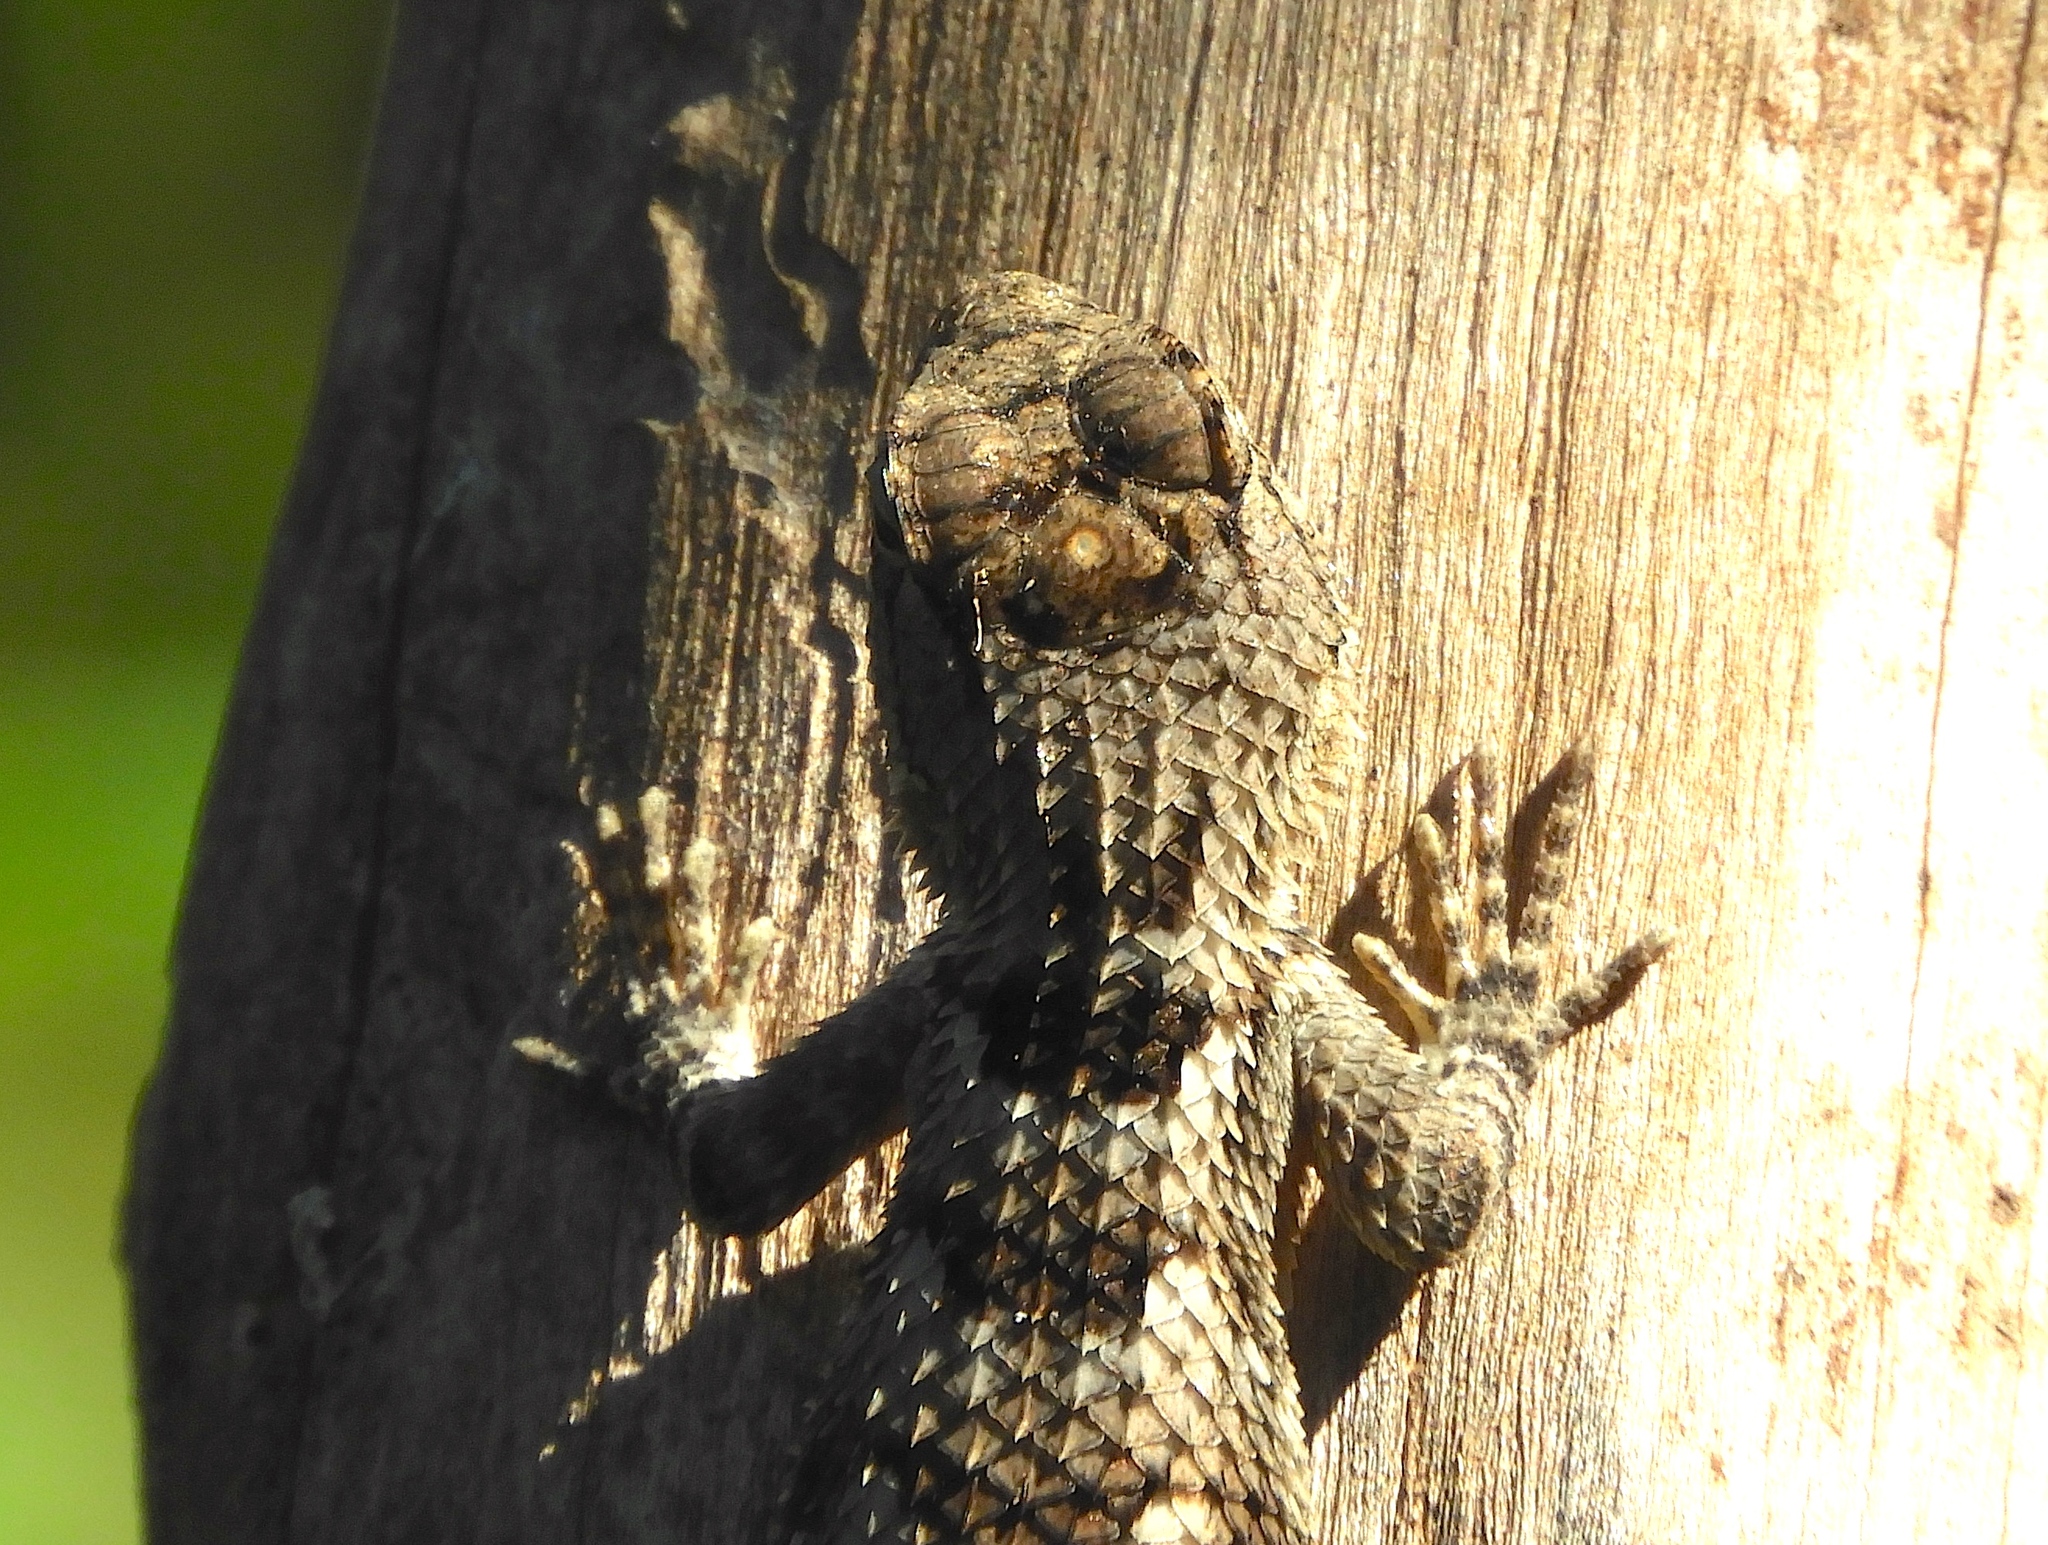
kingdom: Animalia
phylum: Chordata
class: Squamata
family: Phrynosomatidae
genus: Sceloporus
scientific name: Sceloporus clarkii
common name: Clark's spiny lizard
